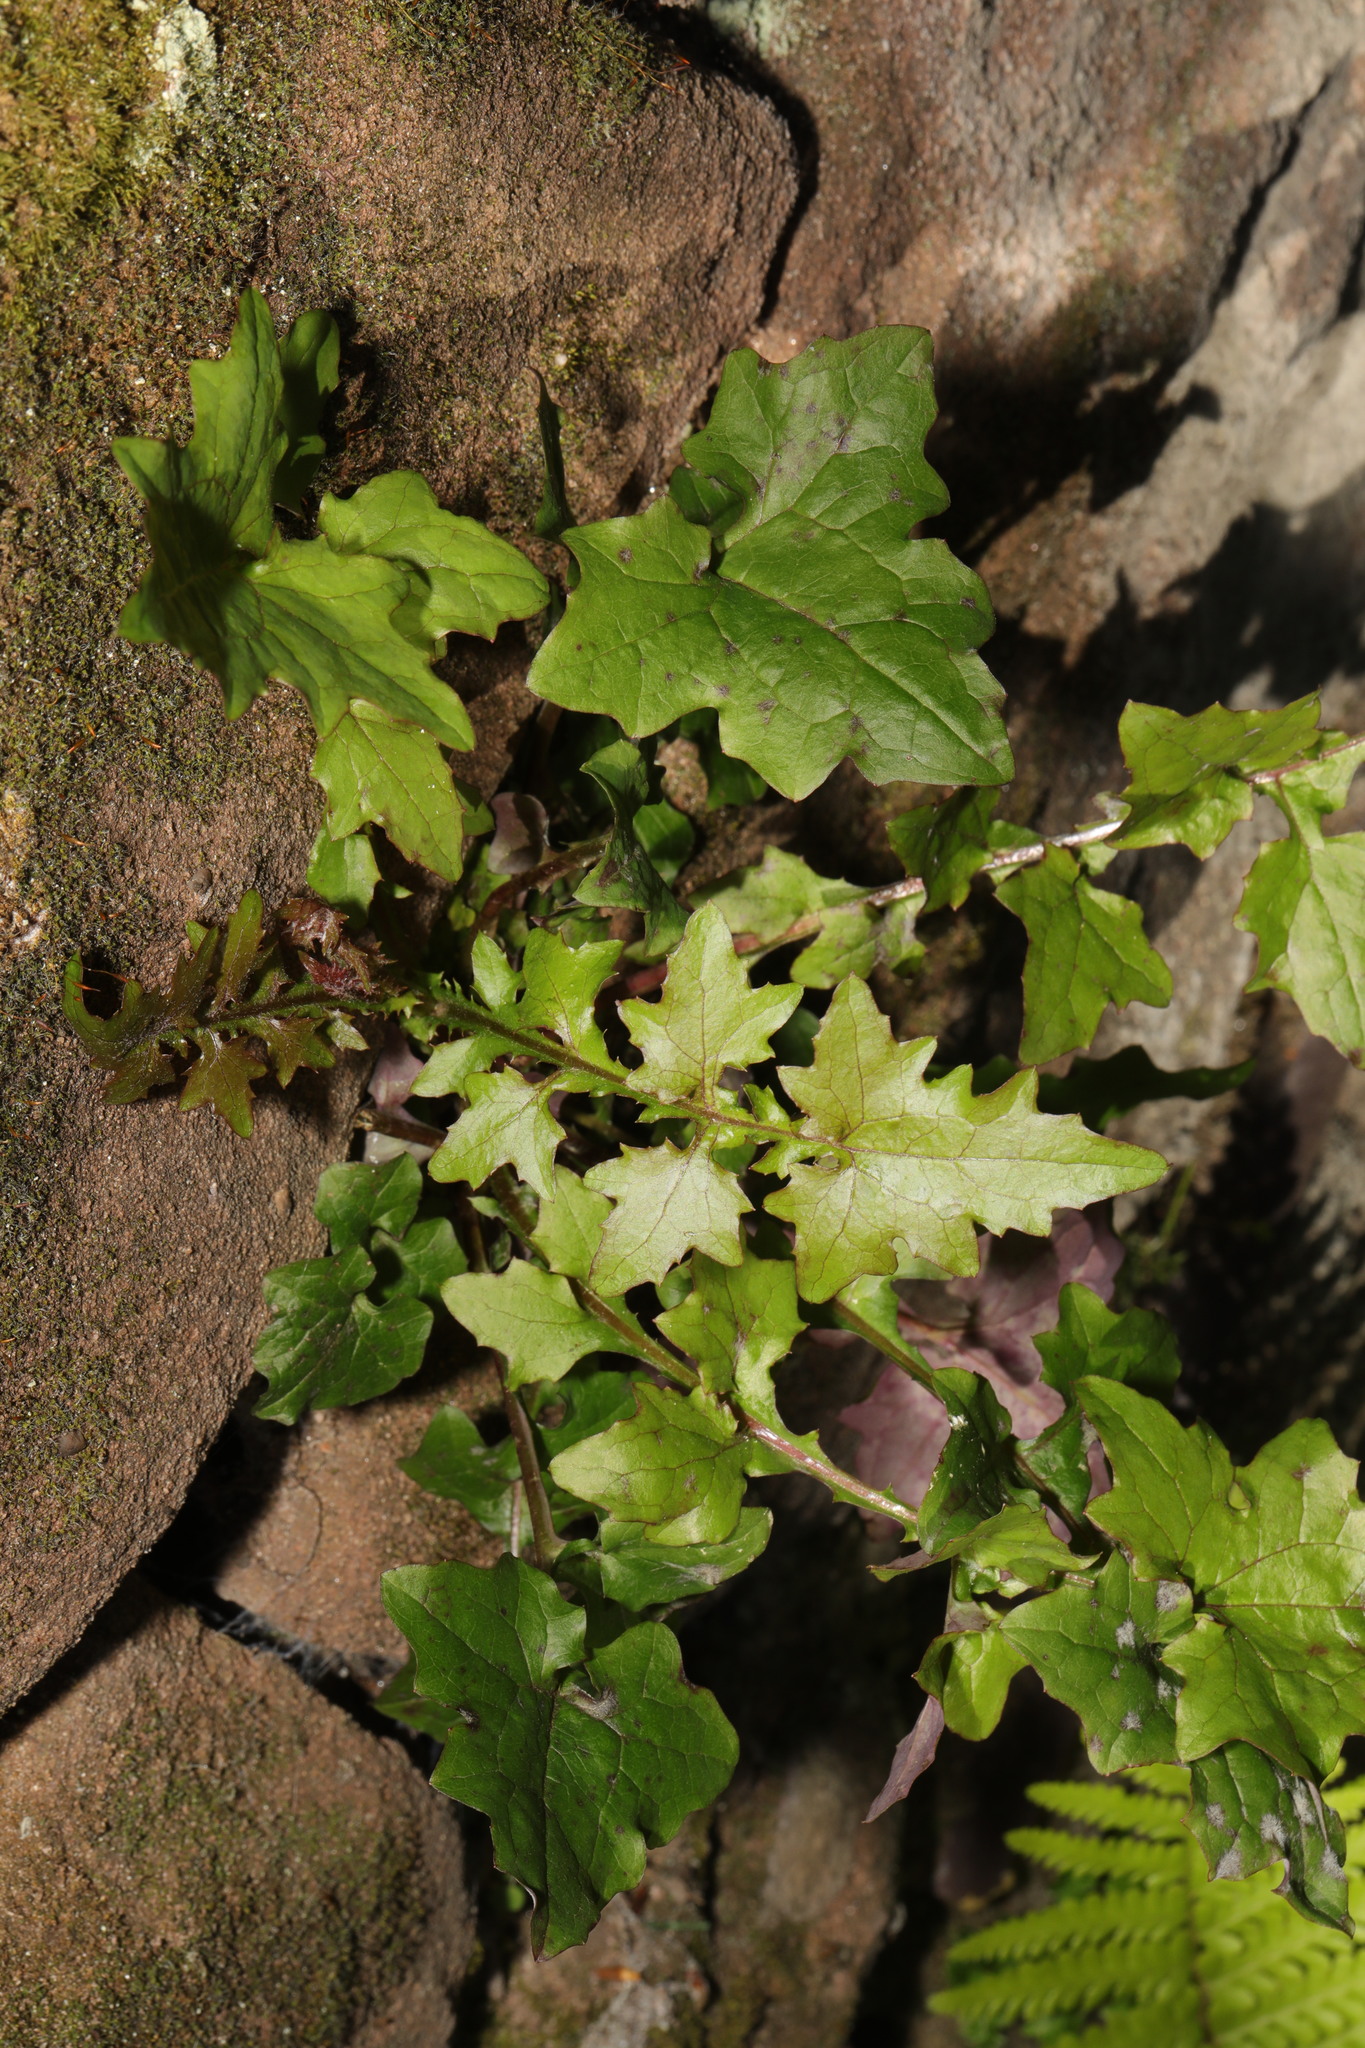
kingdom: Plantae
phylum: Tracheophyta
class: Magnoliopsida
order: Asterales
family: Asteraceae
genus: Mycelis
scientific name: Mycelis muralis
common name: Wall lettuce
